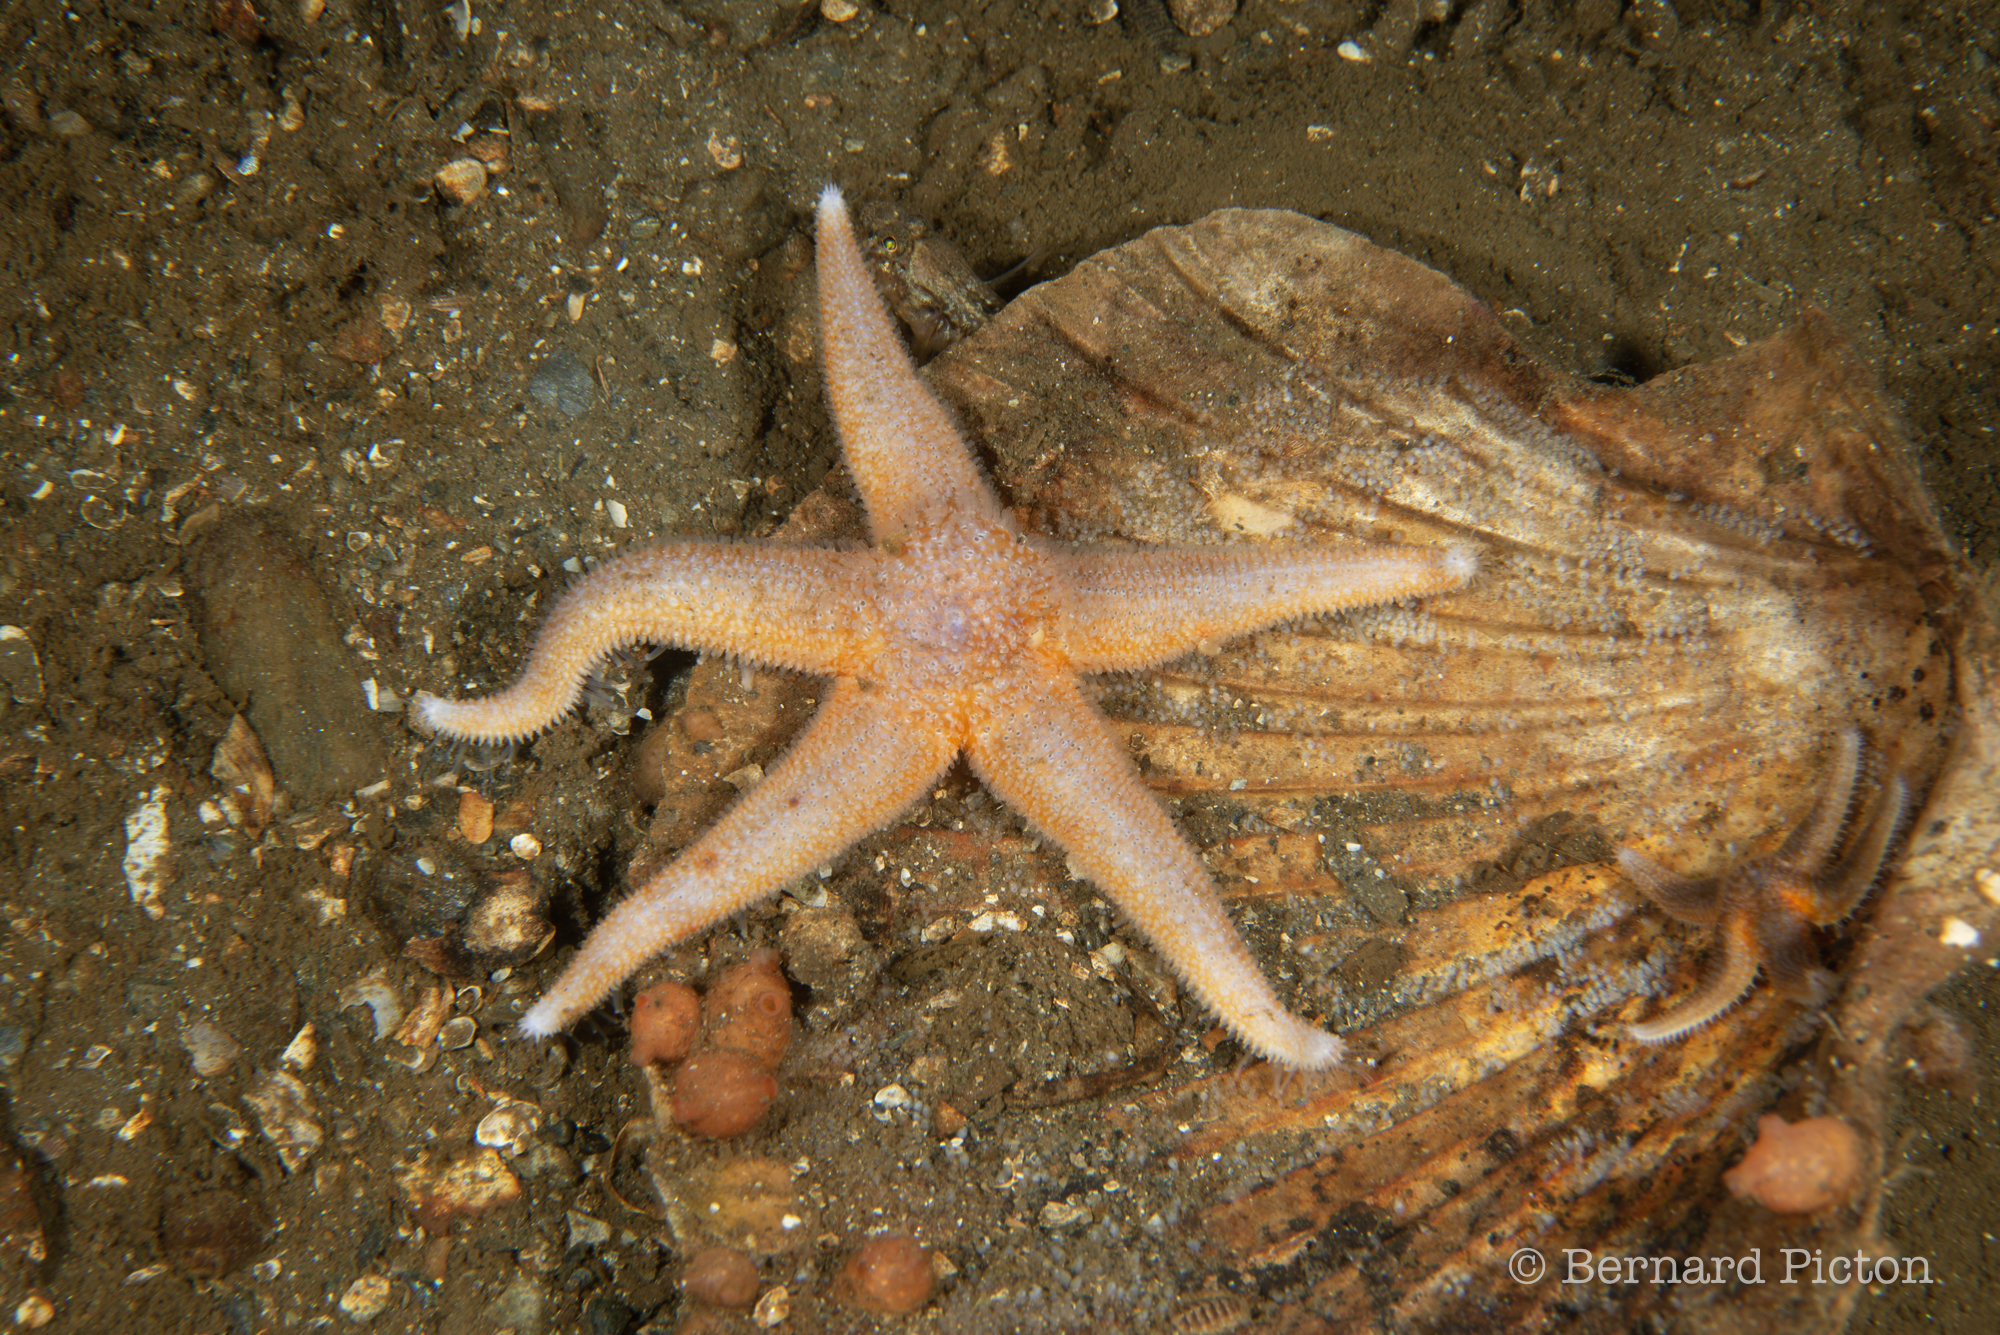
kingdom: Animalia
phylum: Echinodermata
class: Asteroidea
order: Forcipulatida
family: Asteriidae
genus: Asterias
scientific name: Asterias rubens
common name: Common starfish
